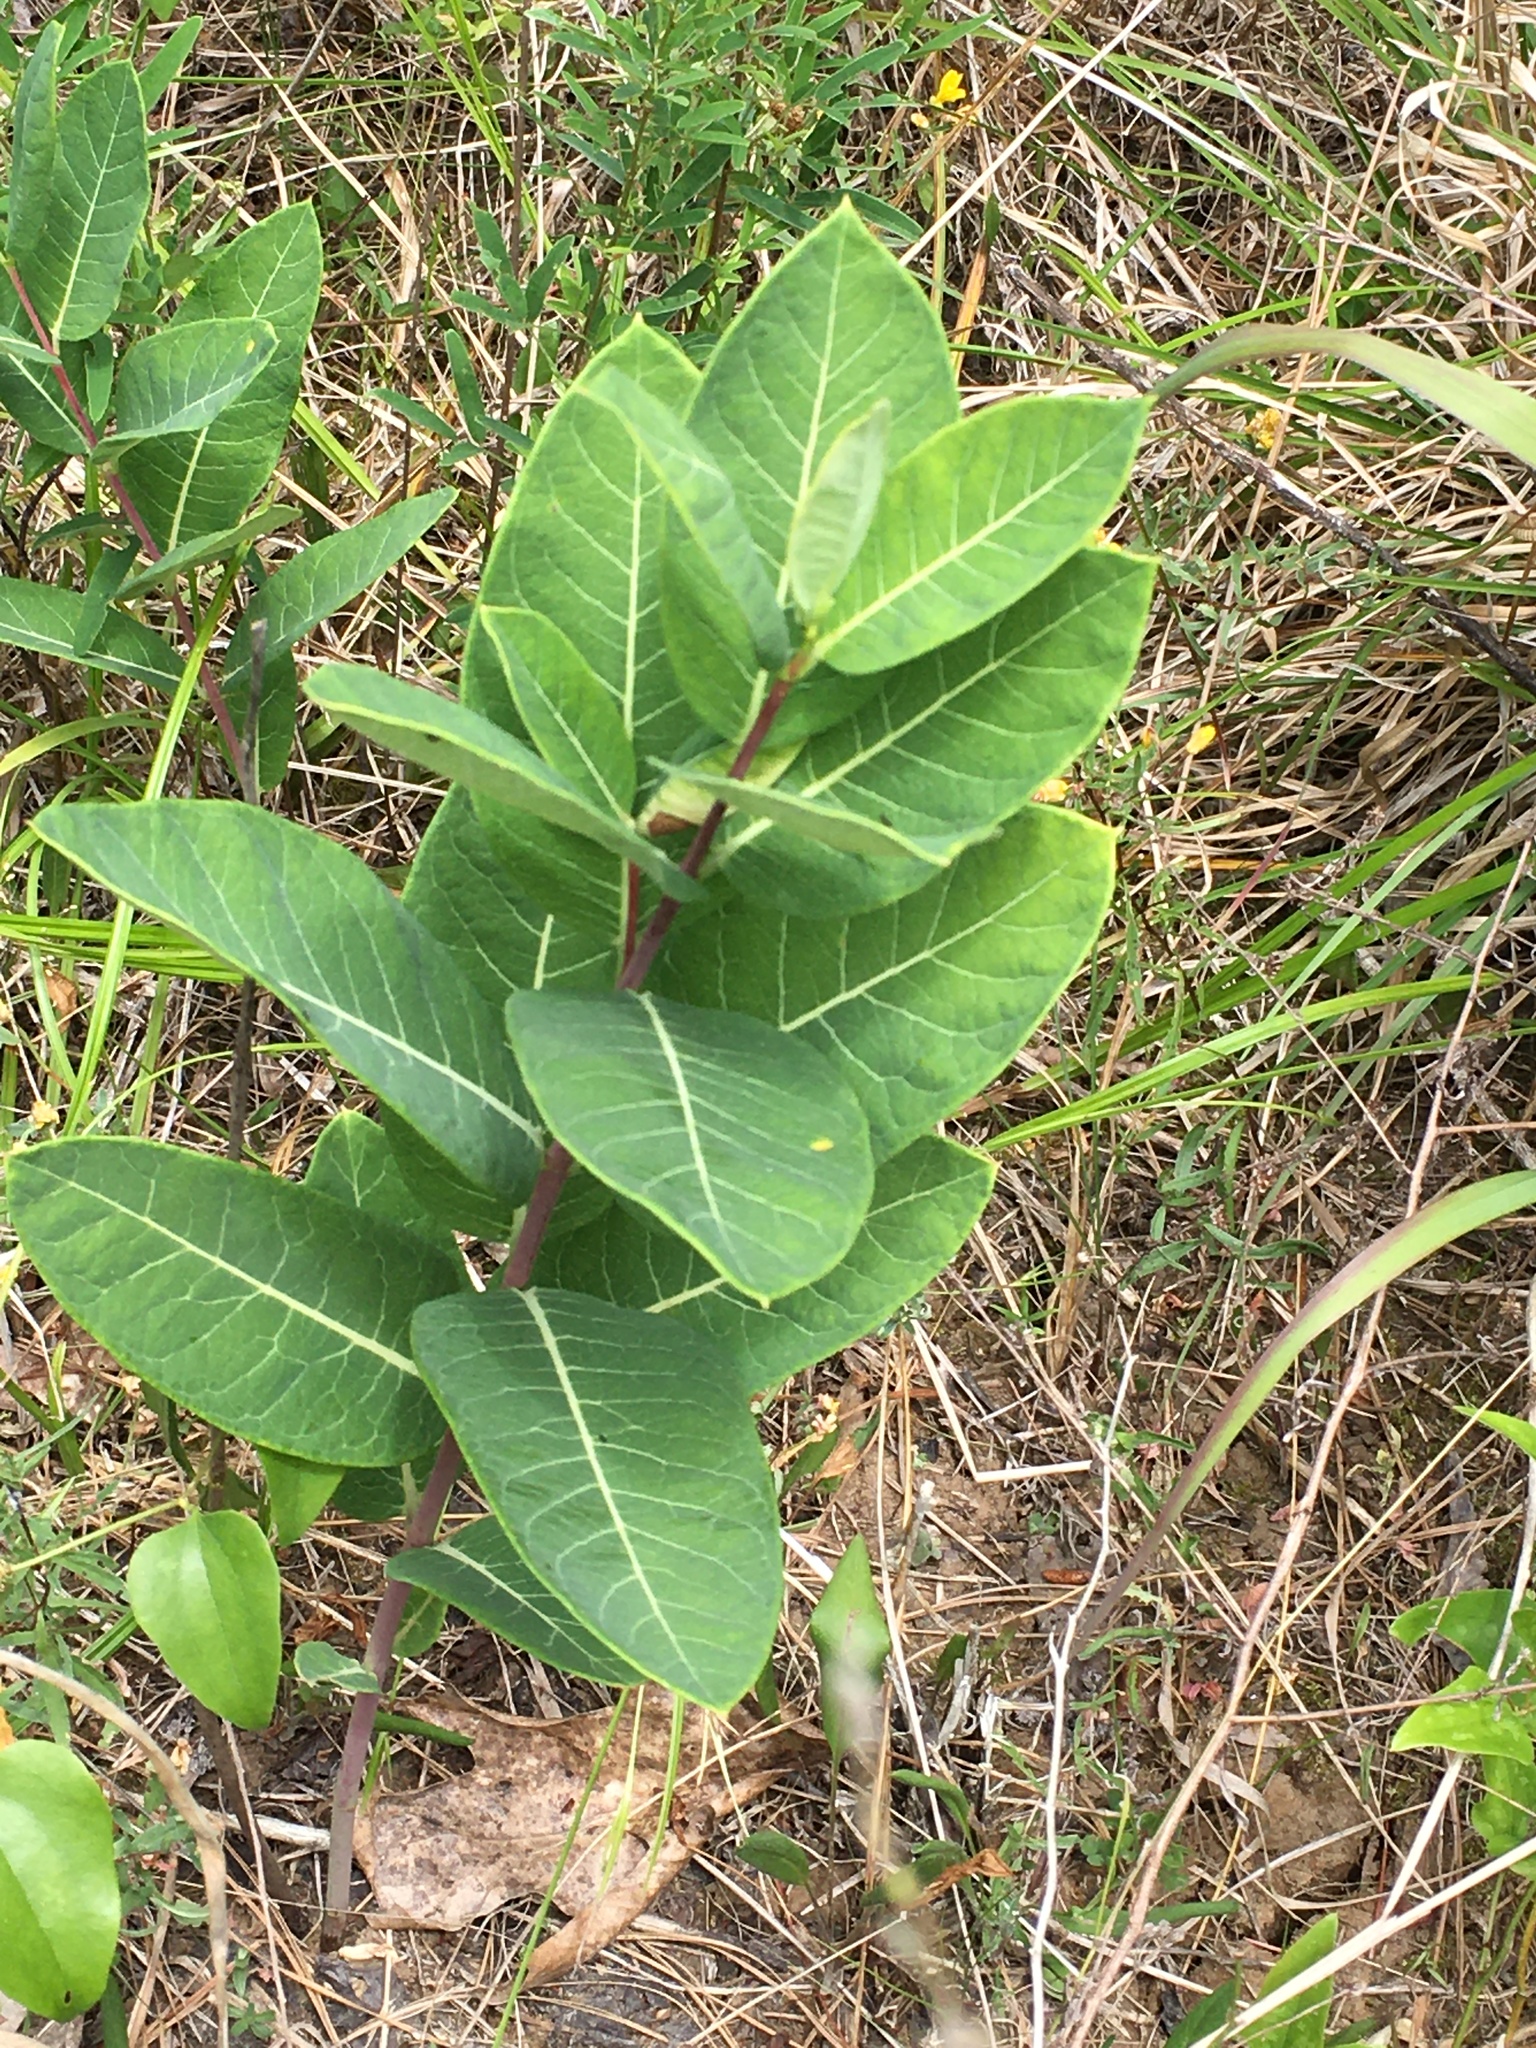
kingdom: Plantae
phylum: Tracheophyta
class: Magnoliopsida
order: Gentianales
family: Apocynaceae
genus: Apocynum
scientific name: Apocynum cannabinum
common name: Hemp dogbane
